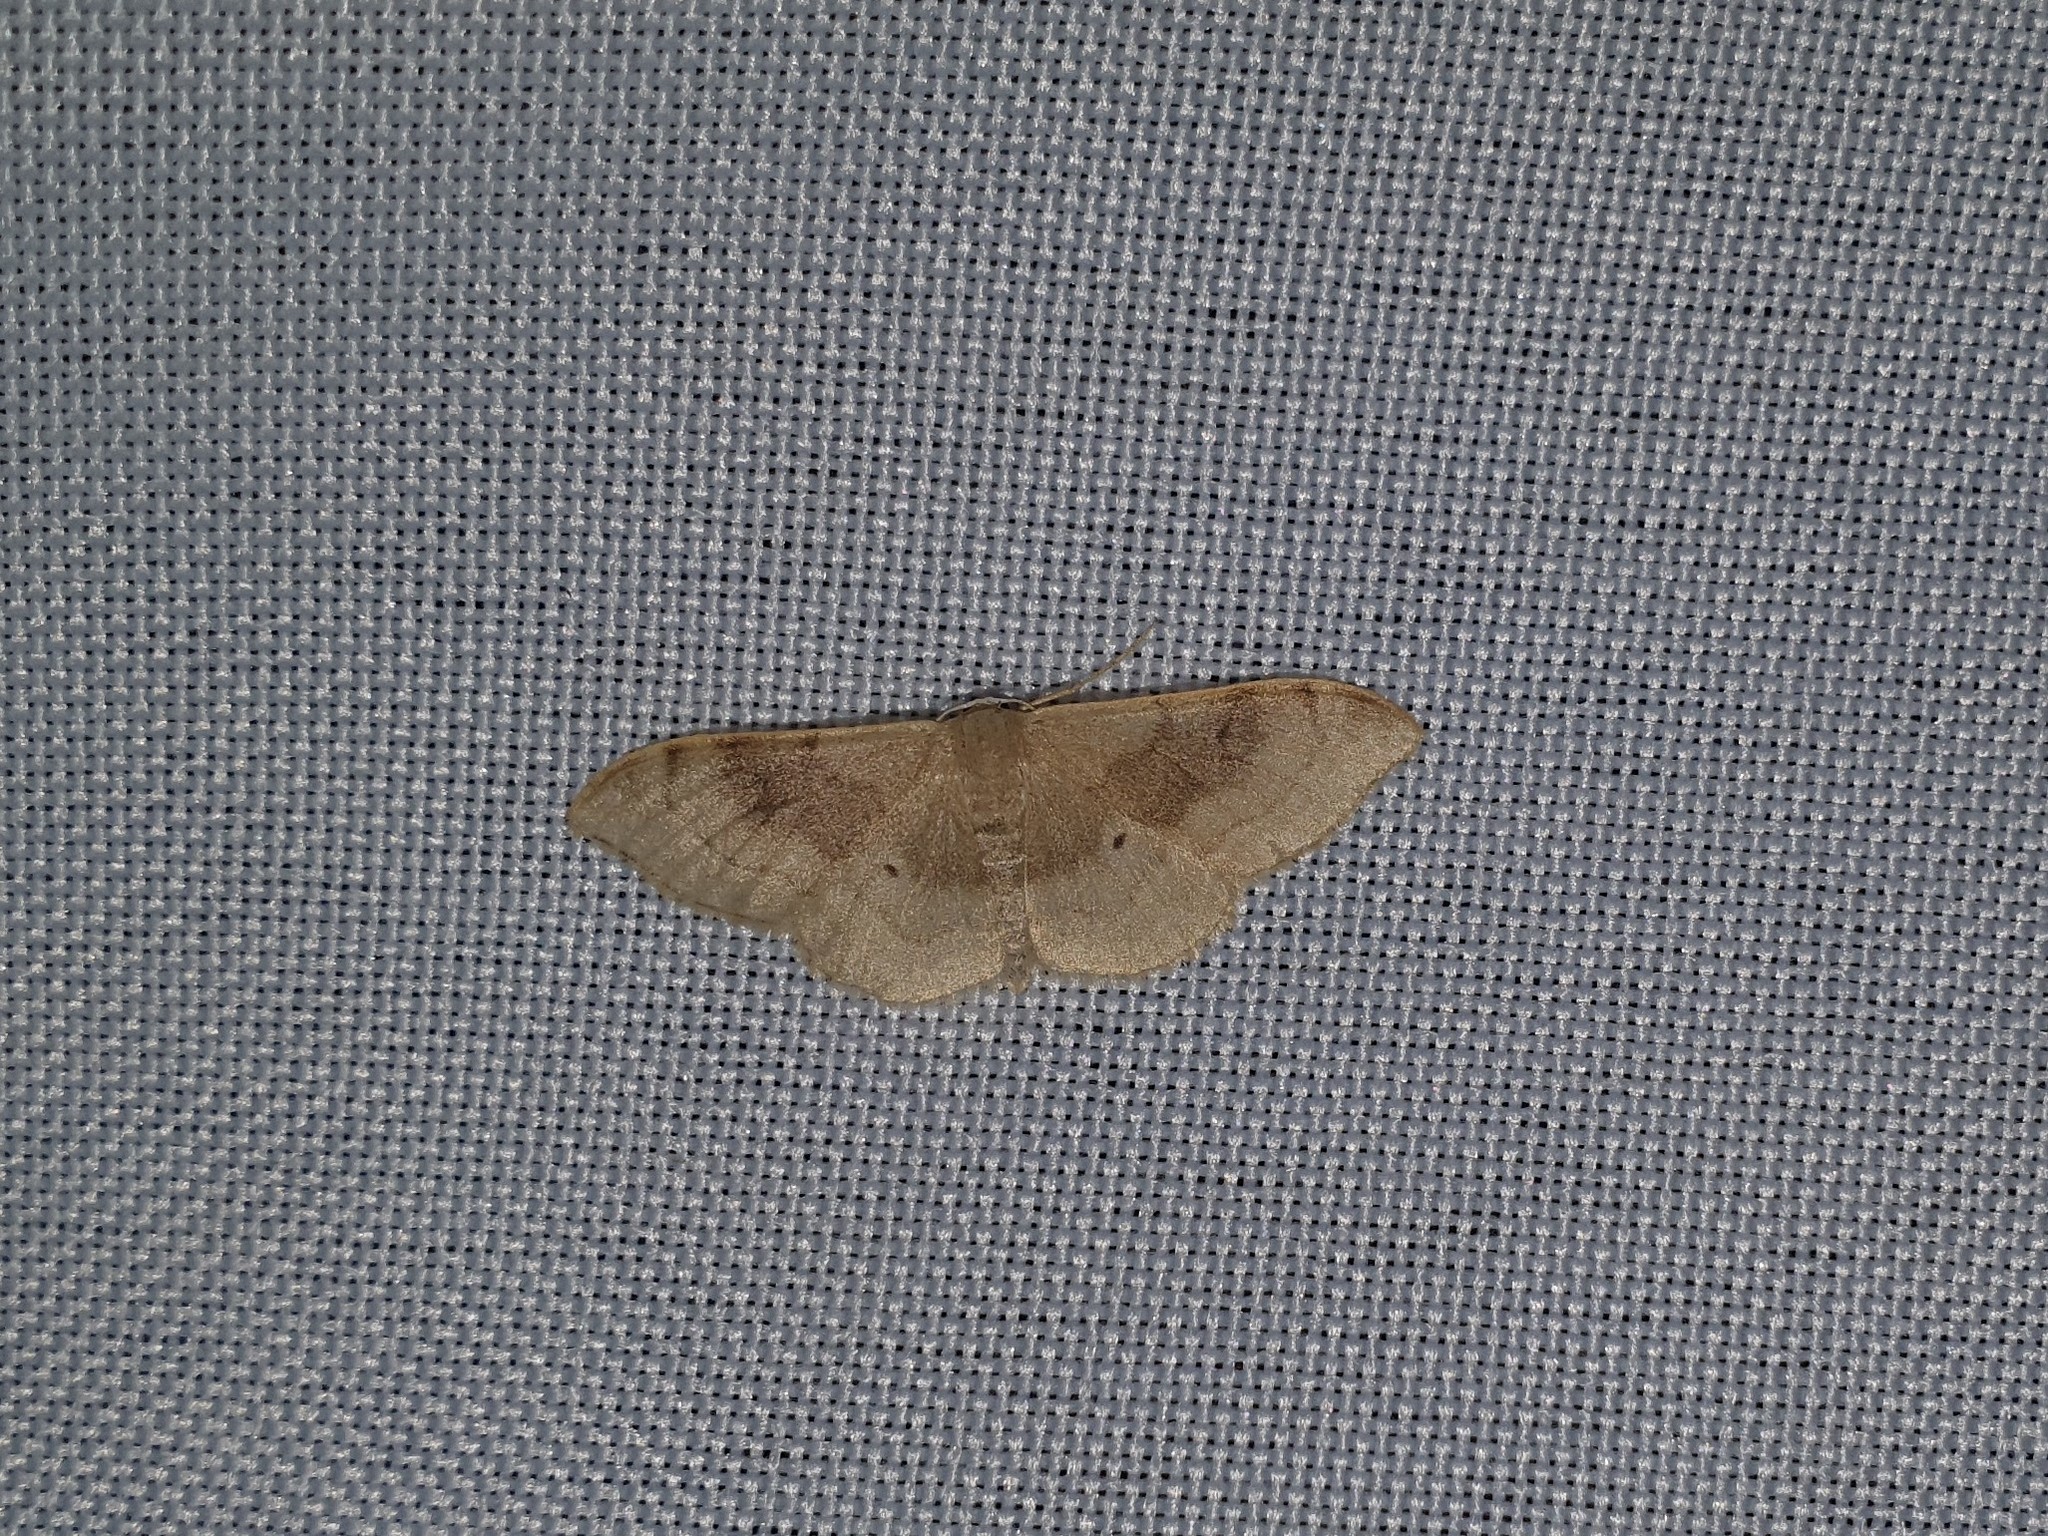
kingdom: Animalia
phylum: Arthropoda
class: Insecta
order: Lepidoptera
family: Geometridae
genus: Idaea
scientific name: Idaea degeneraria
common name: Portland ribbon wave
